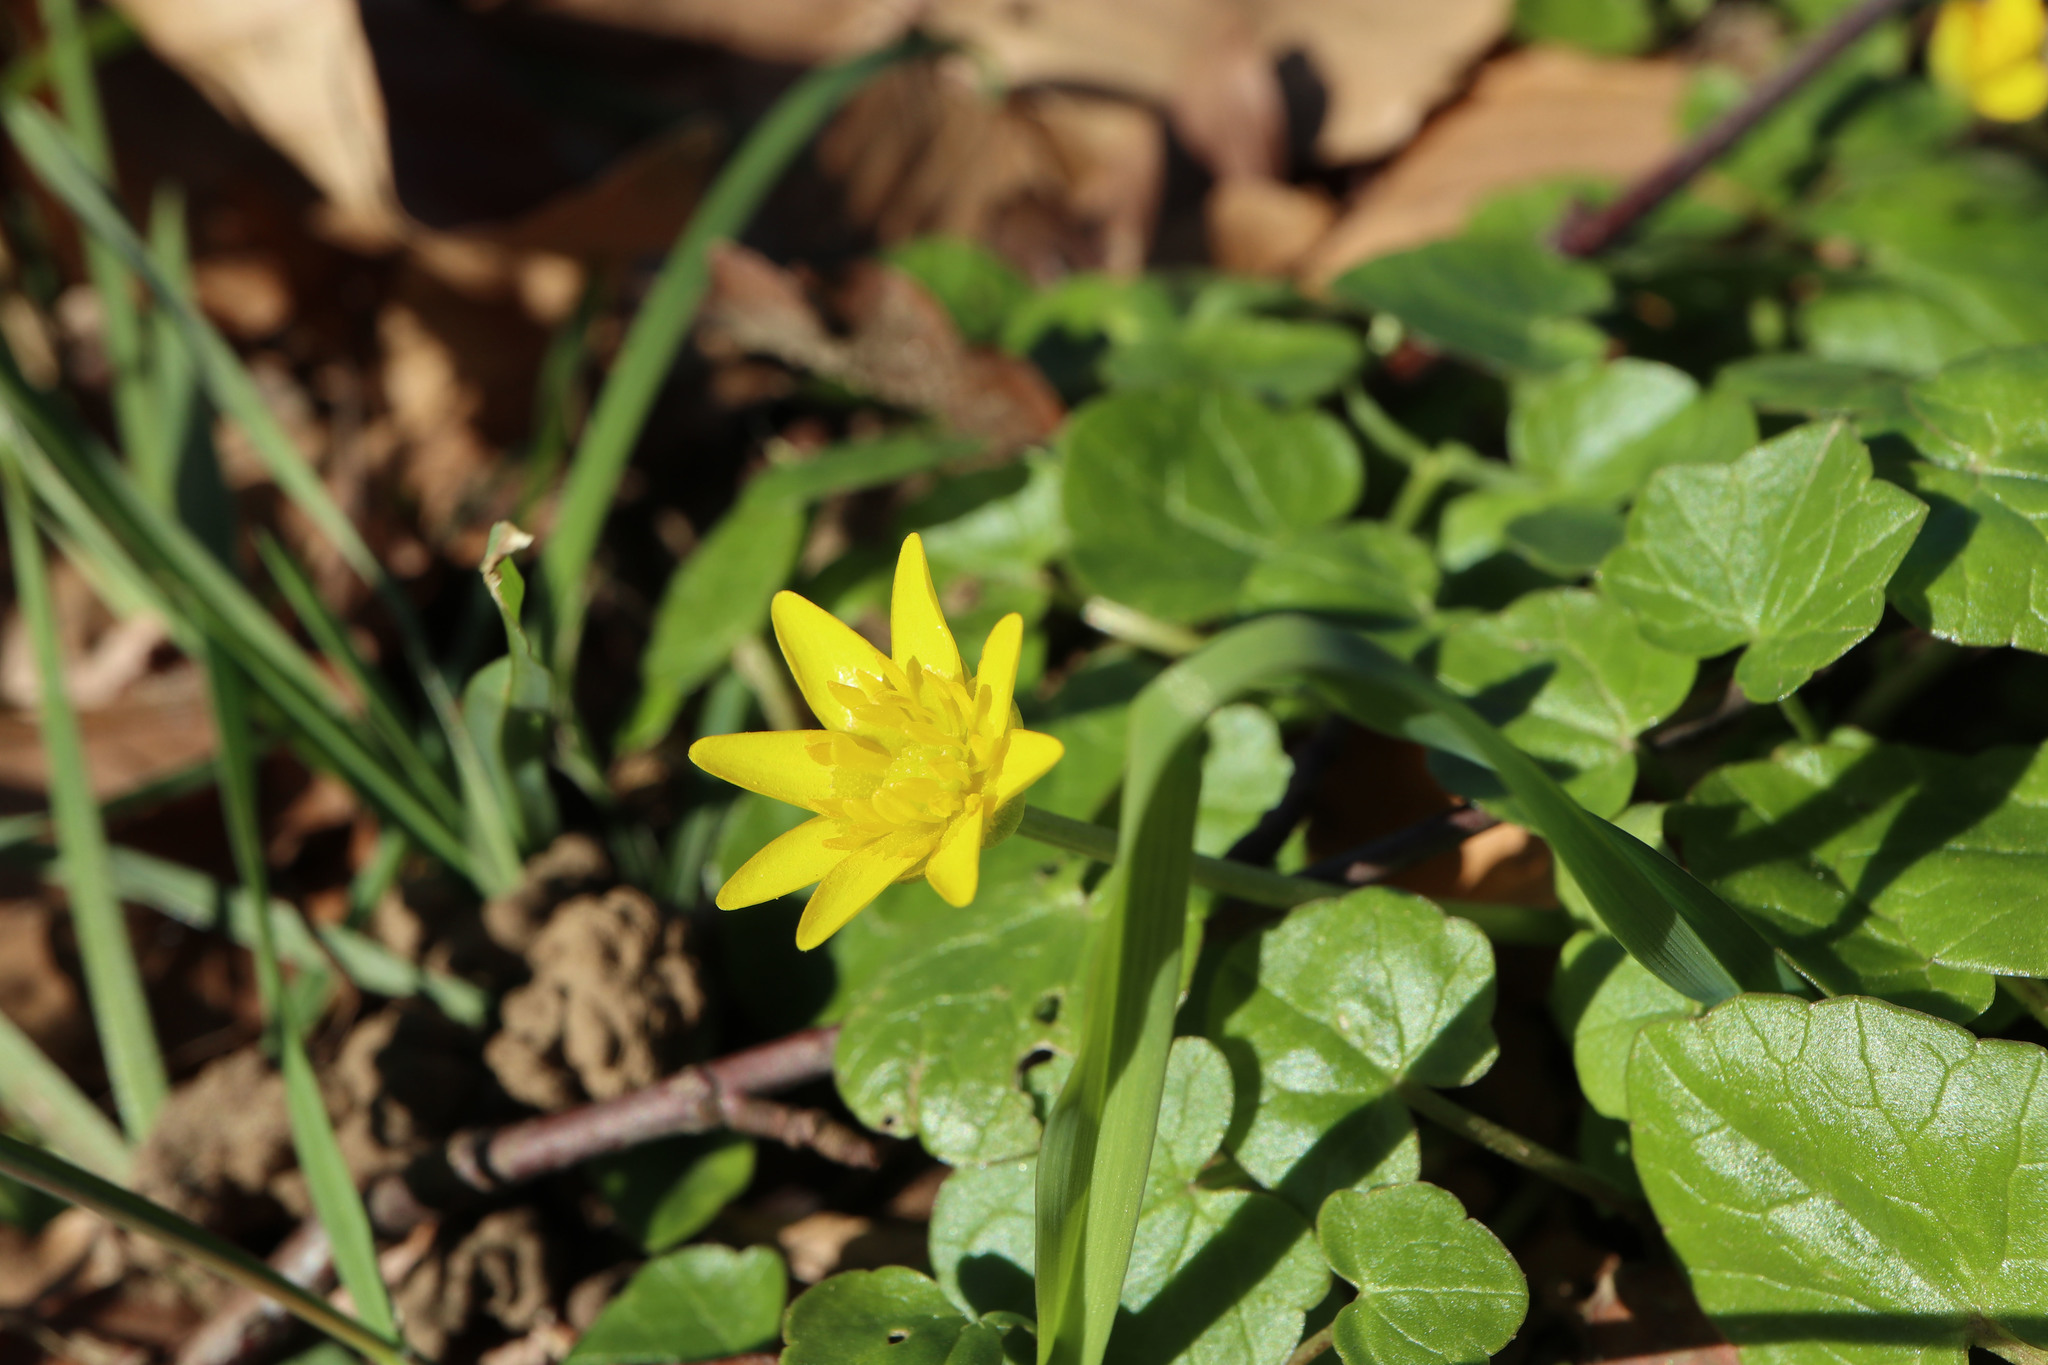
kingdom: Plantae
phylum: Tracheophyta
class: Magnoliopsida
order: Ranunculales
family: Ranunculaceae
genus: Ficaria
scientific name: Ficaria verna
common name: Lesser celandine
